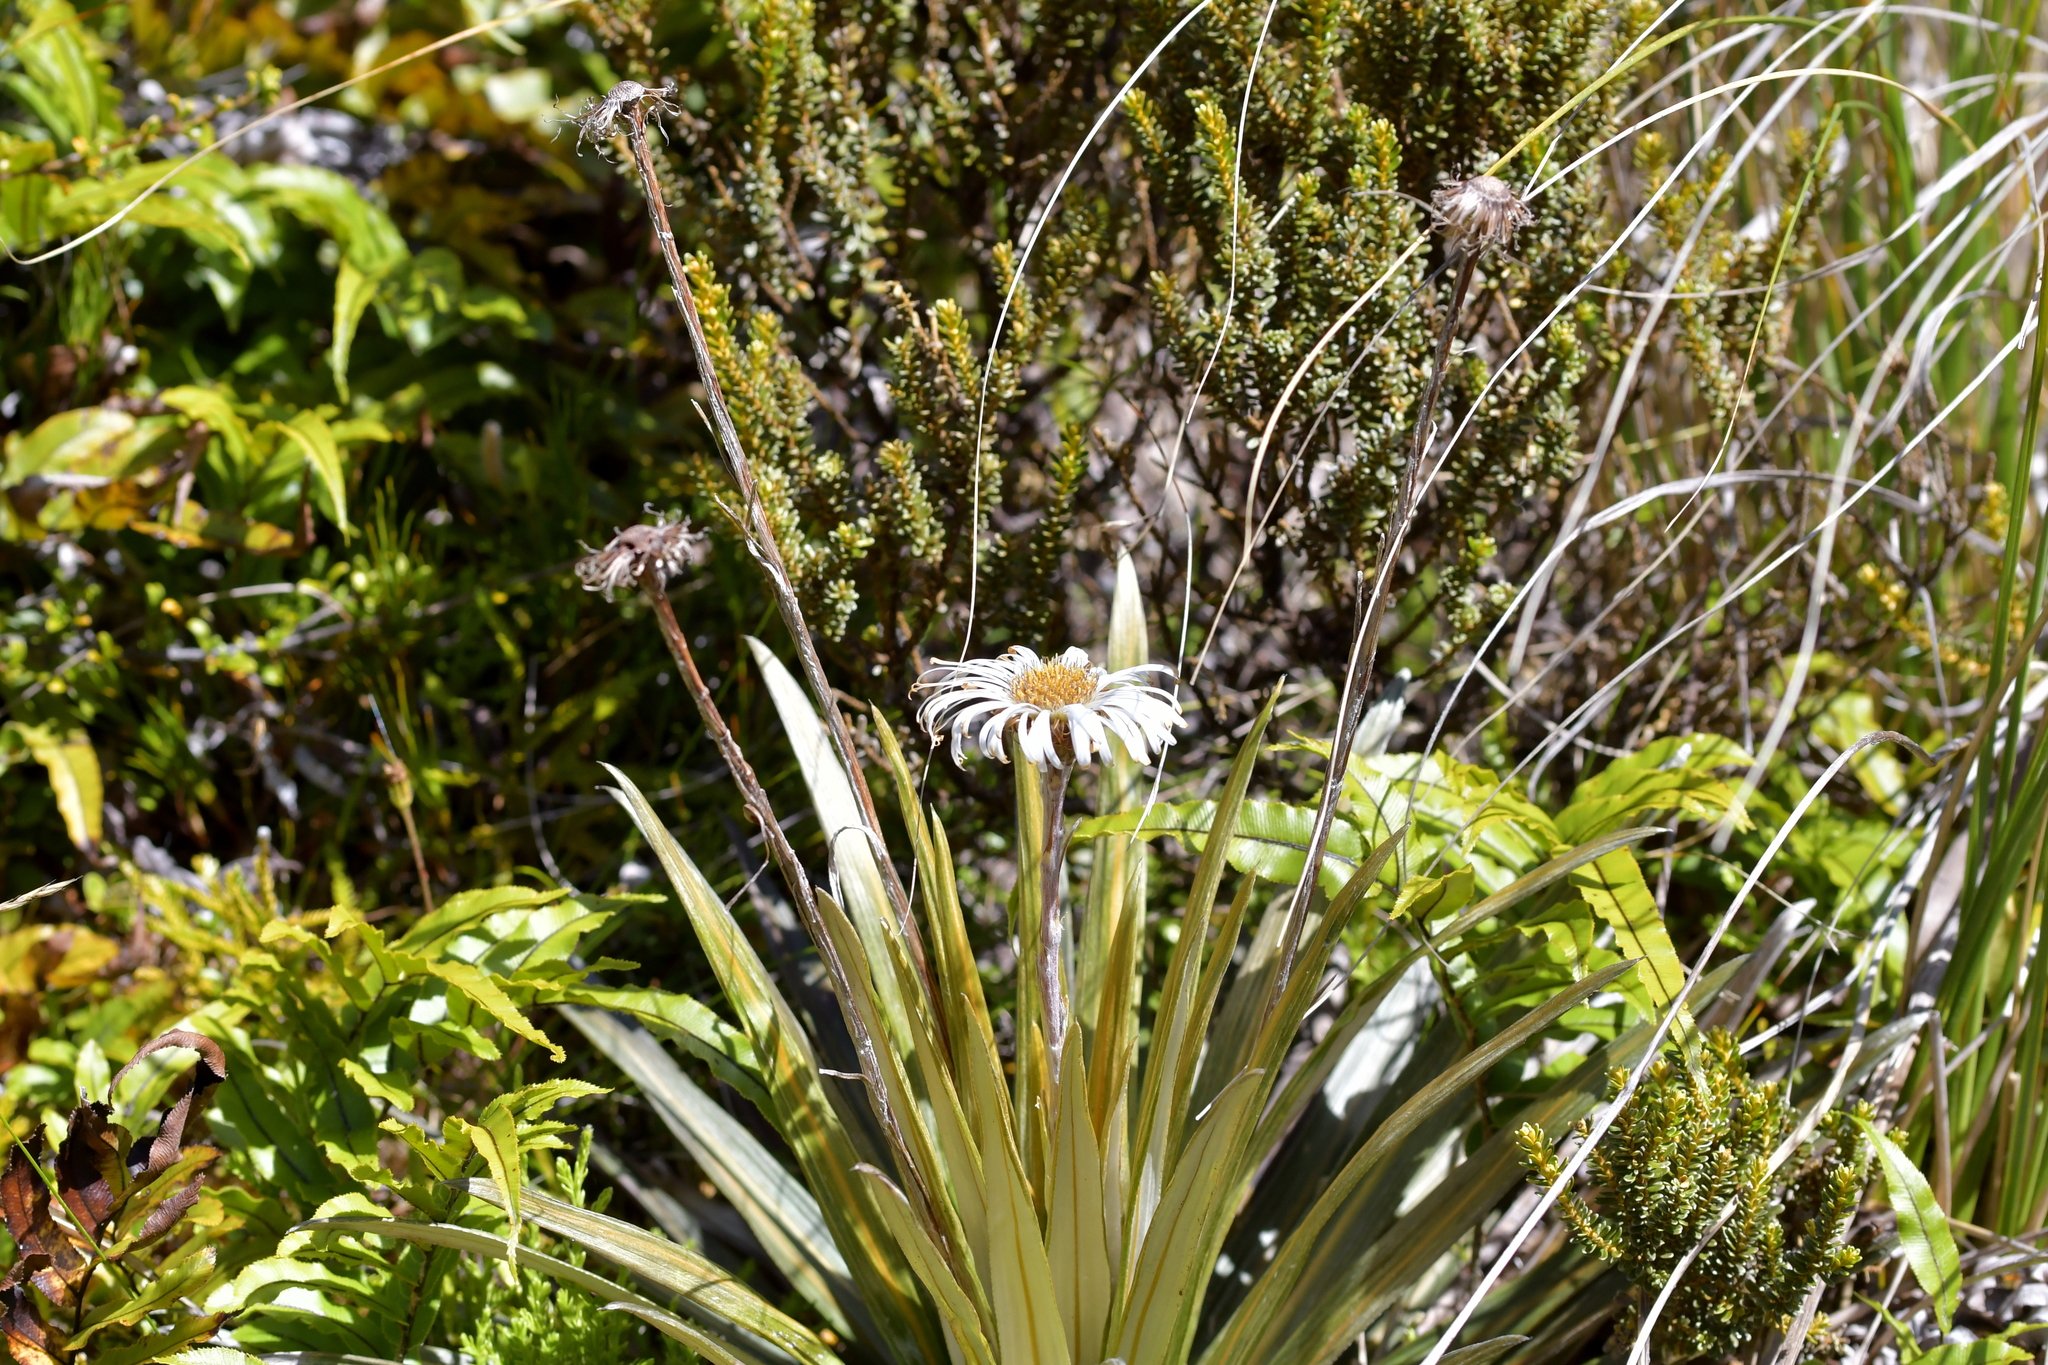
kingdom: Plantae
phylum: Tracheophyta
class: Magnoliopsida
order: Asterales
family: Asteraceae
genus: Celmisia
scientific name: Celmisia armstrongii
